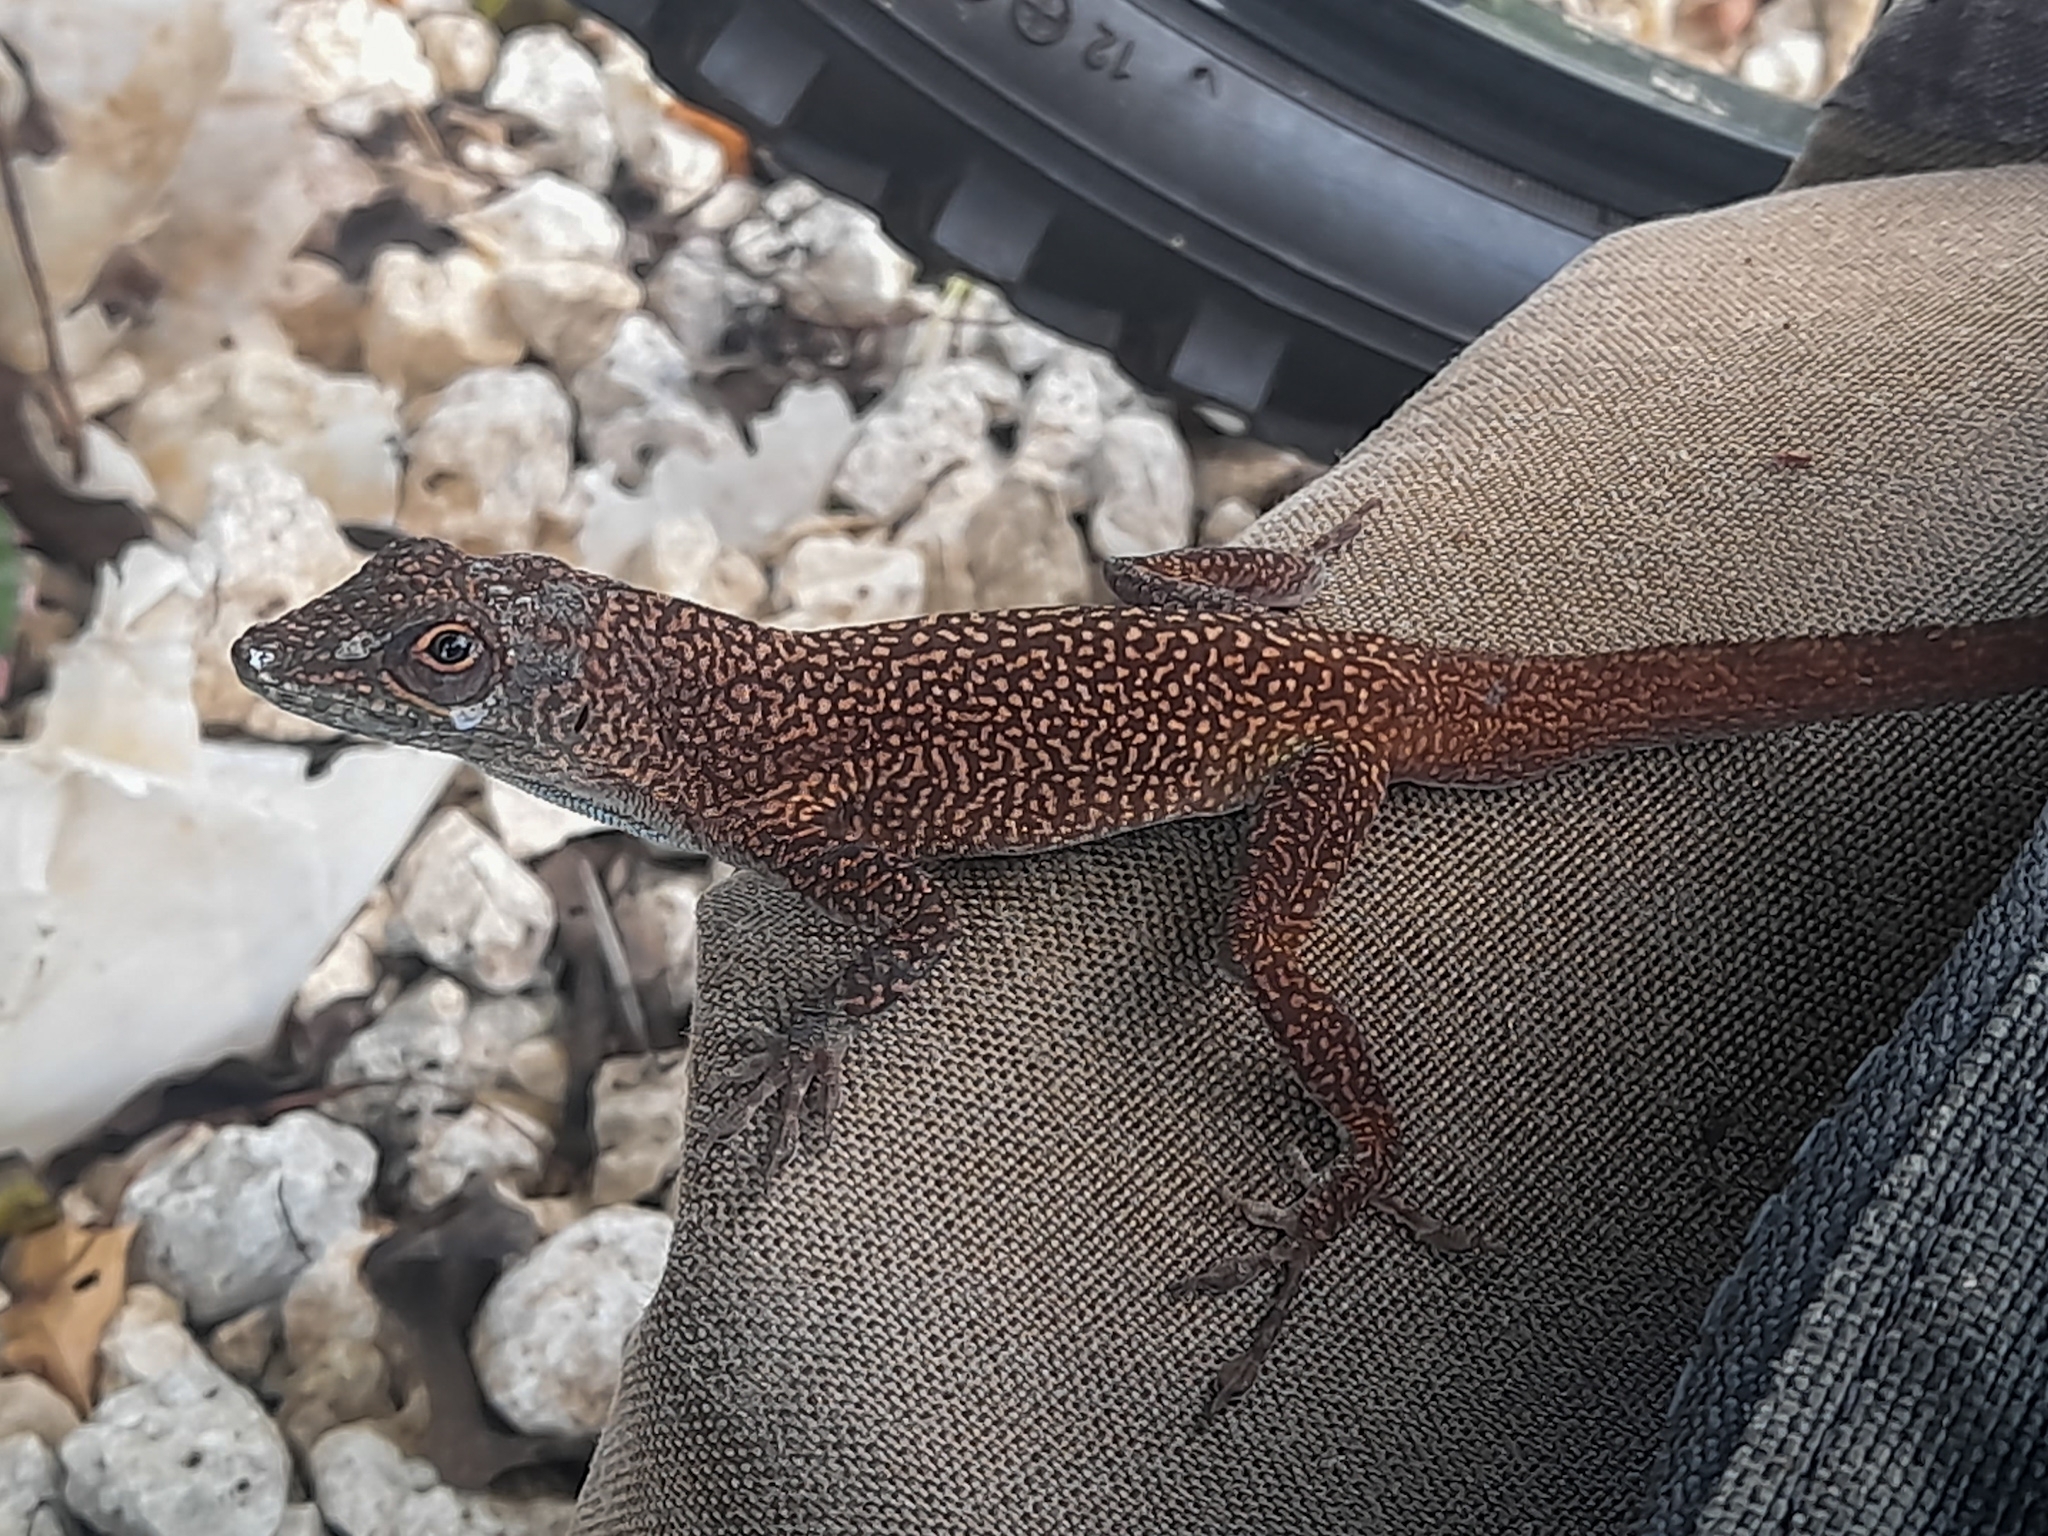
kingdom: Animalia
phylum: Chordata
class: Squamata
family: Dactyloidae
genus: Anolis
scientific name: Anolis conspersus
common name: Grand cayman anole
